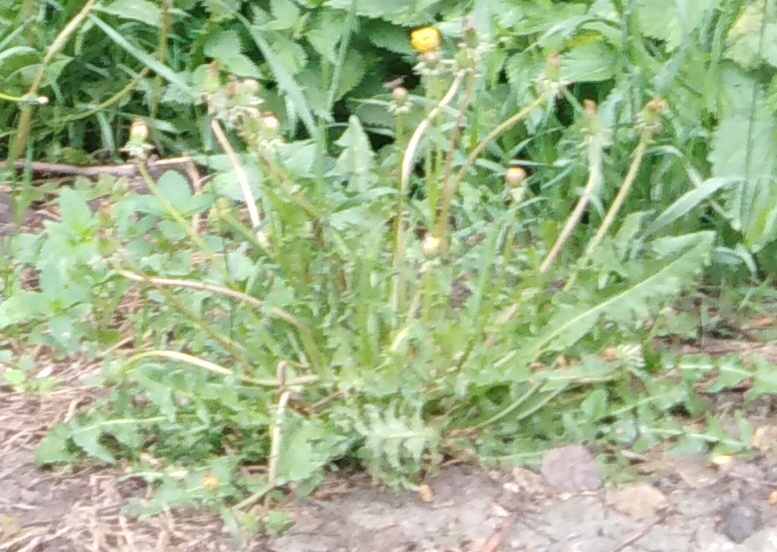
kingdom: Plantae
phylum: Tracheophyta
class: Magnoliopsida
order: Asterales
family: Asteraceae
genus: Taraxacum
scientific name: Taraxacum officinale
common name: Common dandelion
